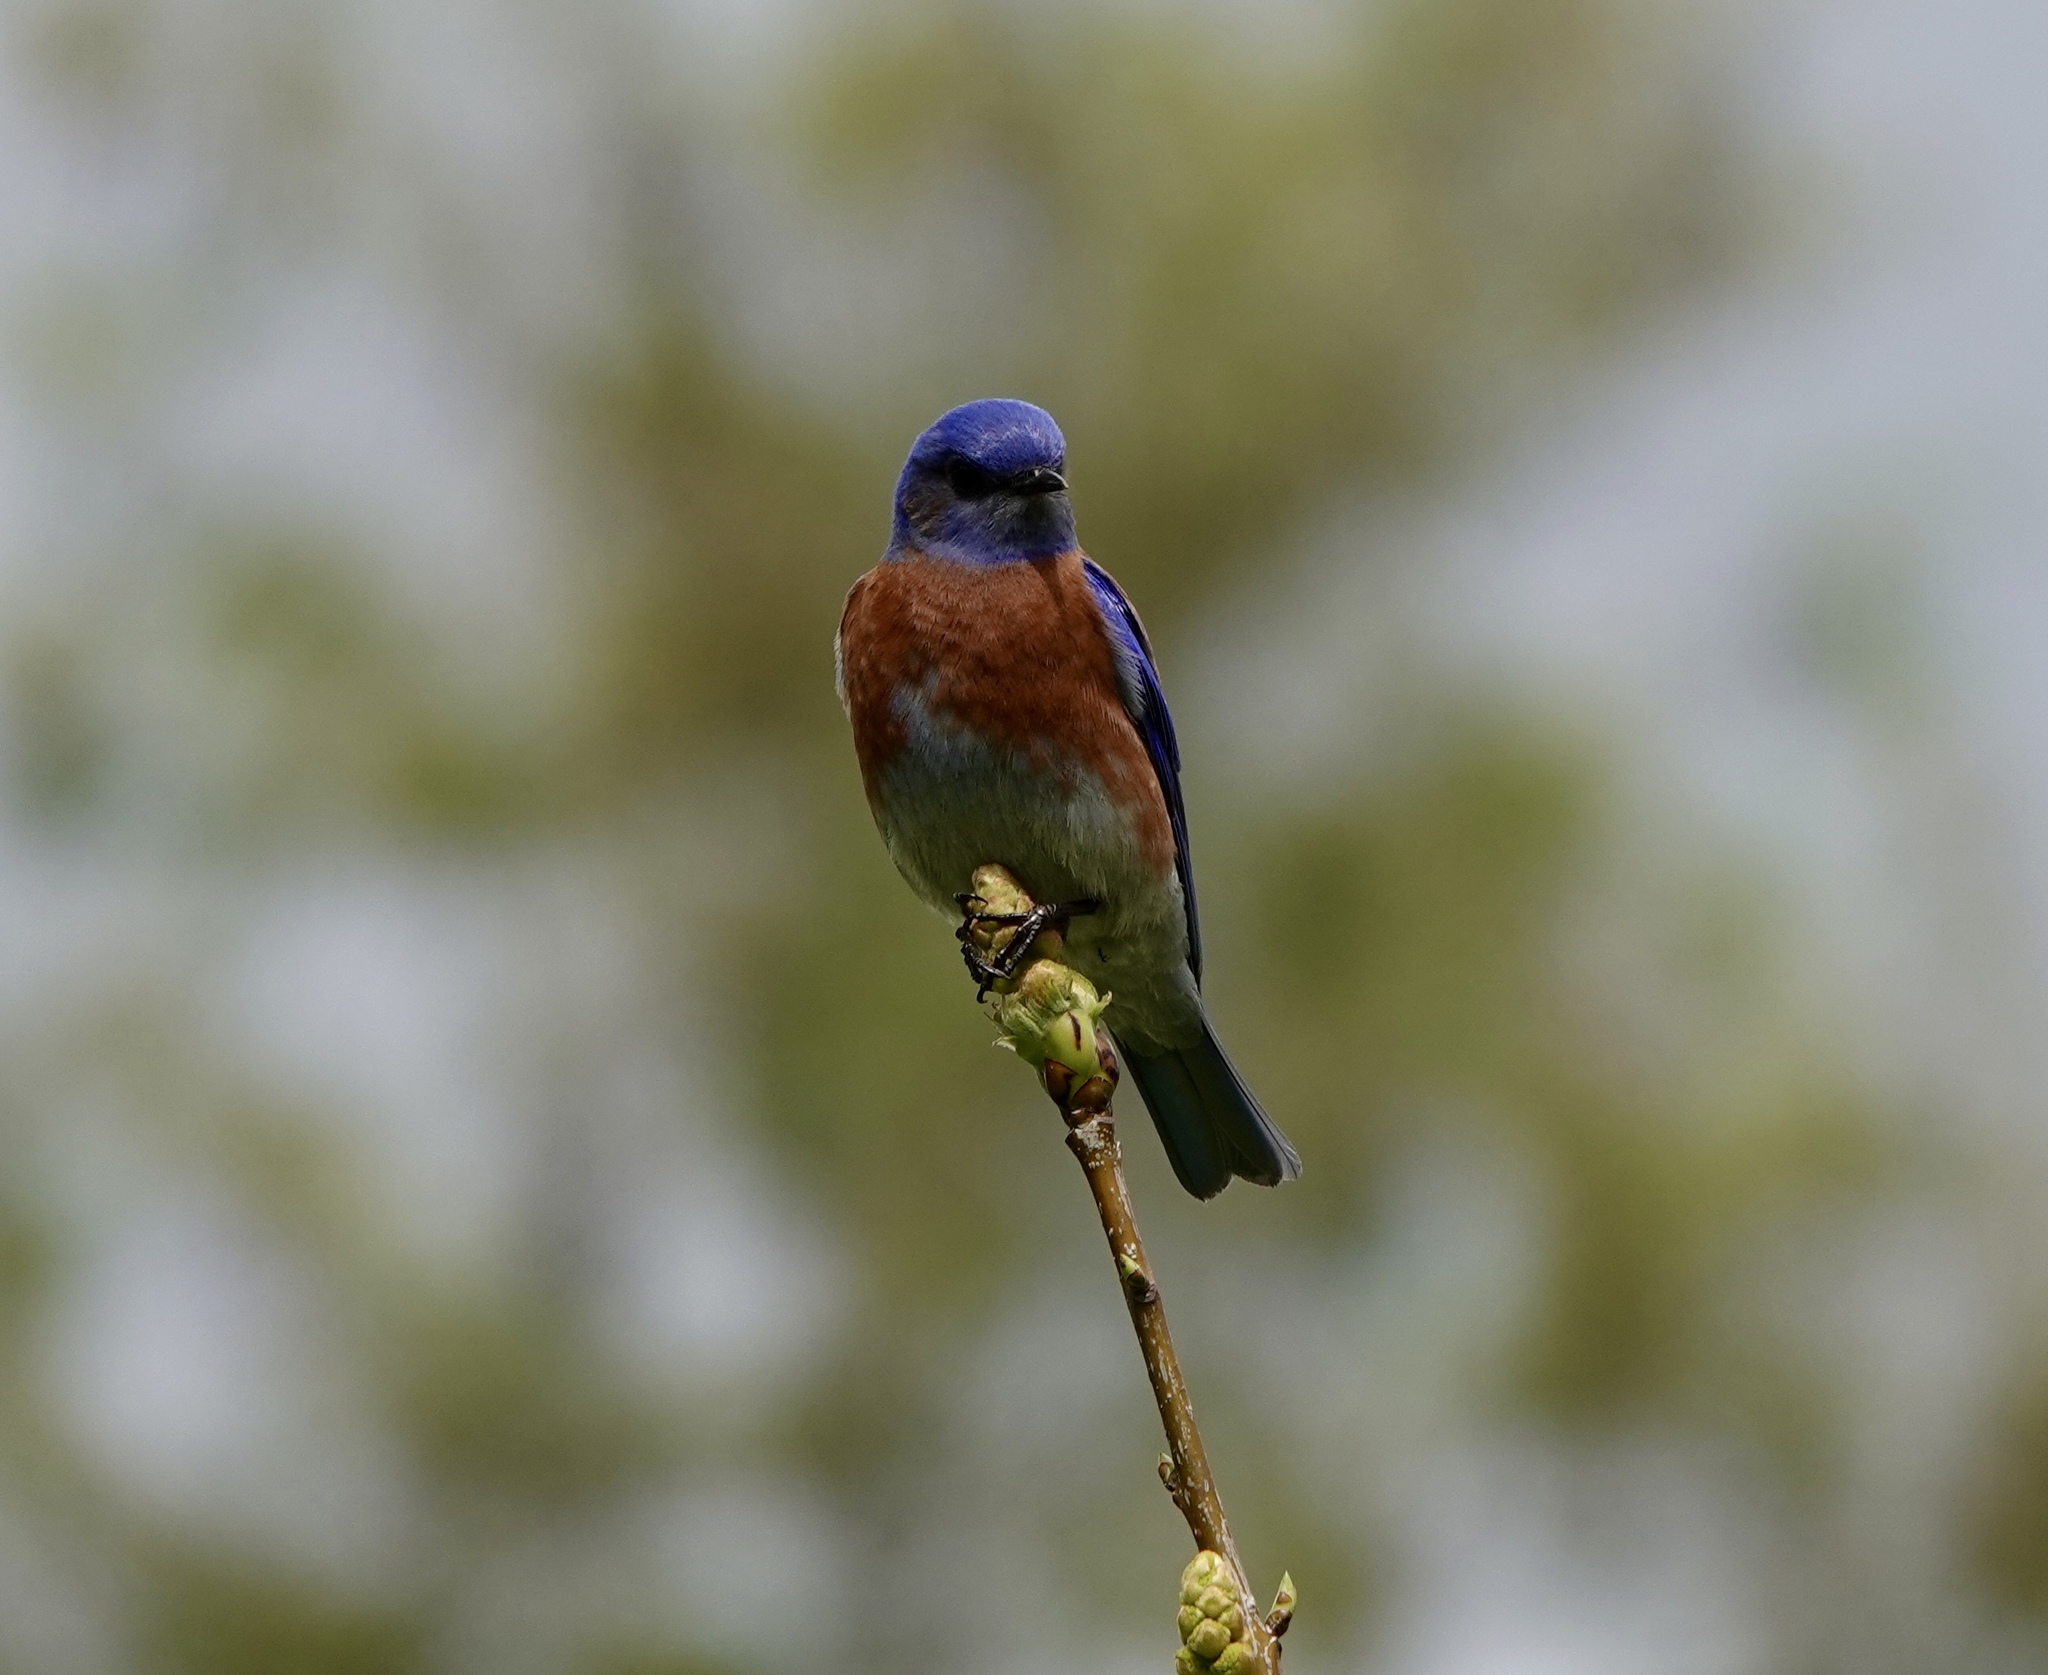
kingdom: Animalia
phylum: Chordata
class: Aves
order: Passeriformes
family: Turdidae
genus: Sialia
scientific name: Sialia mexicana
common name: Western bluebird
